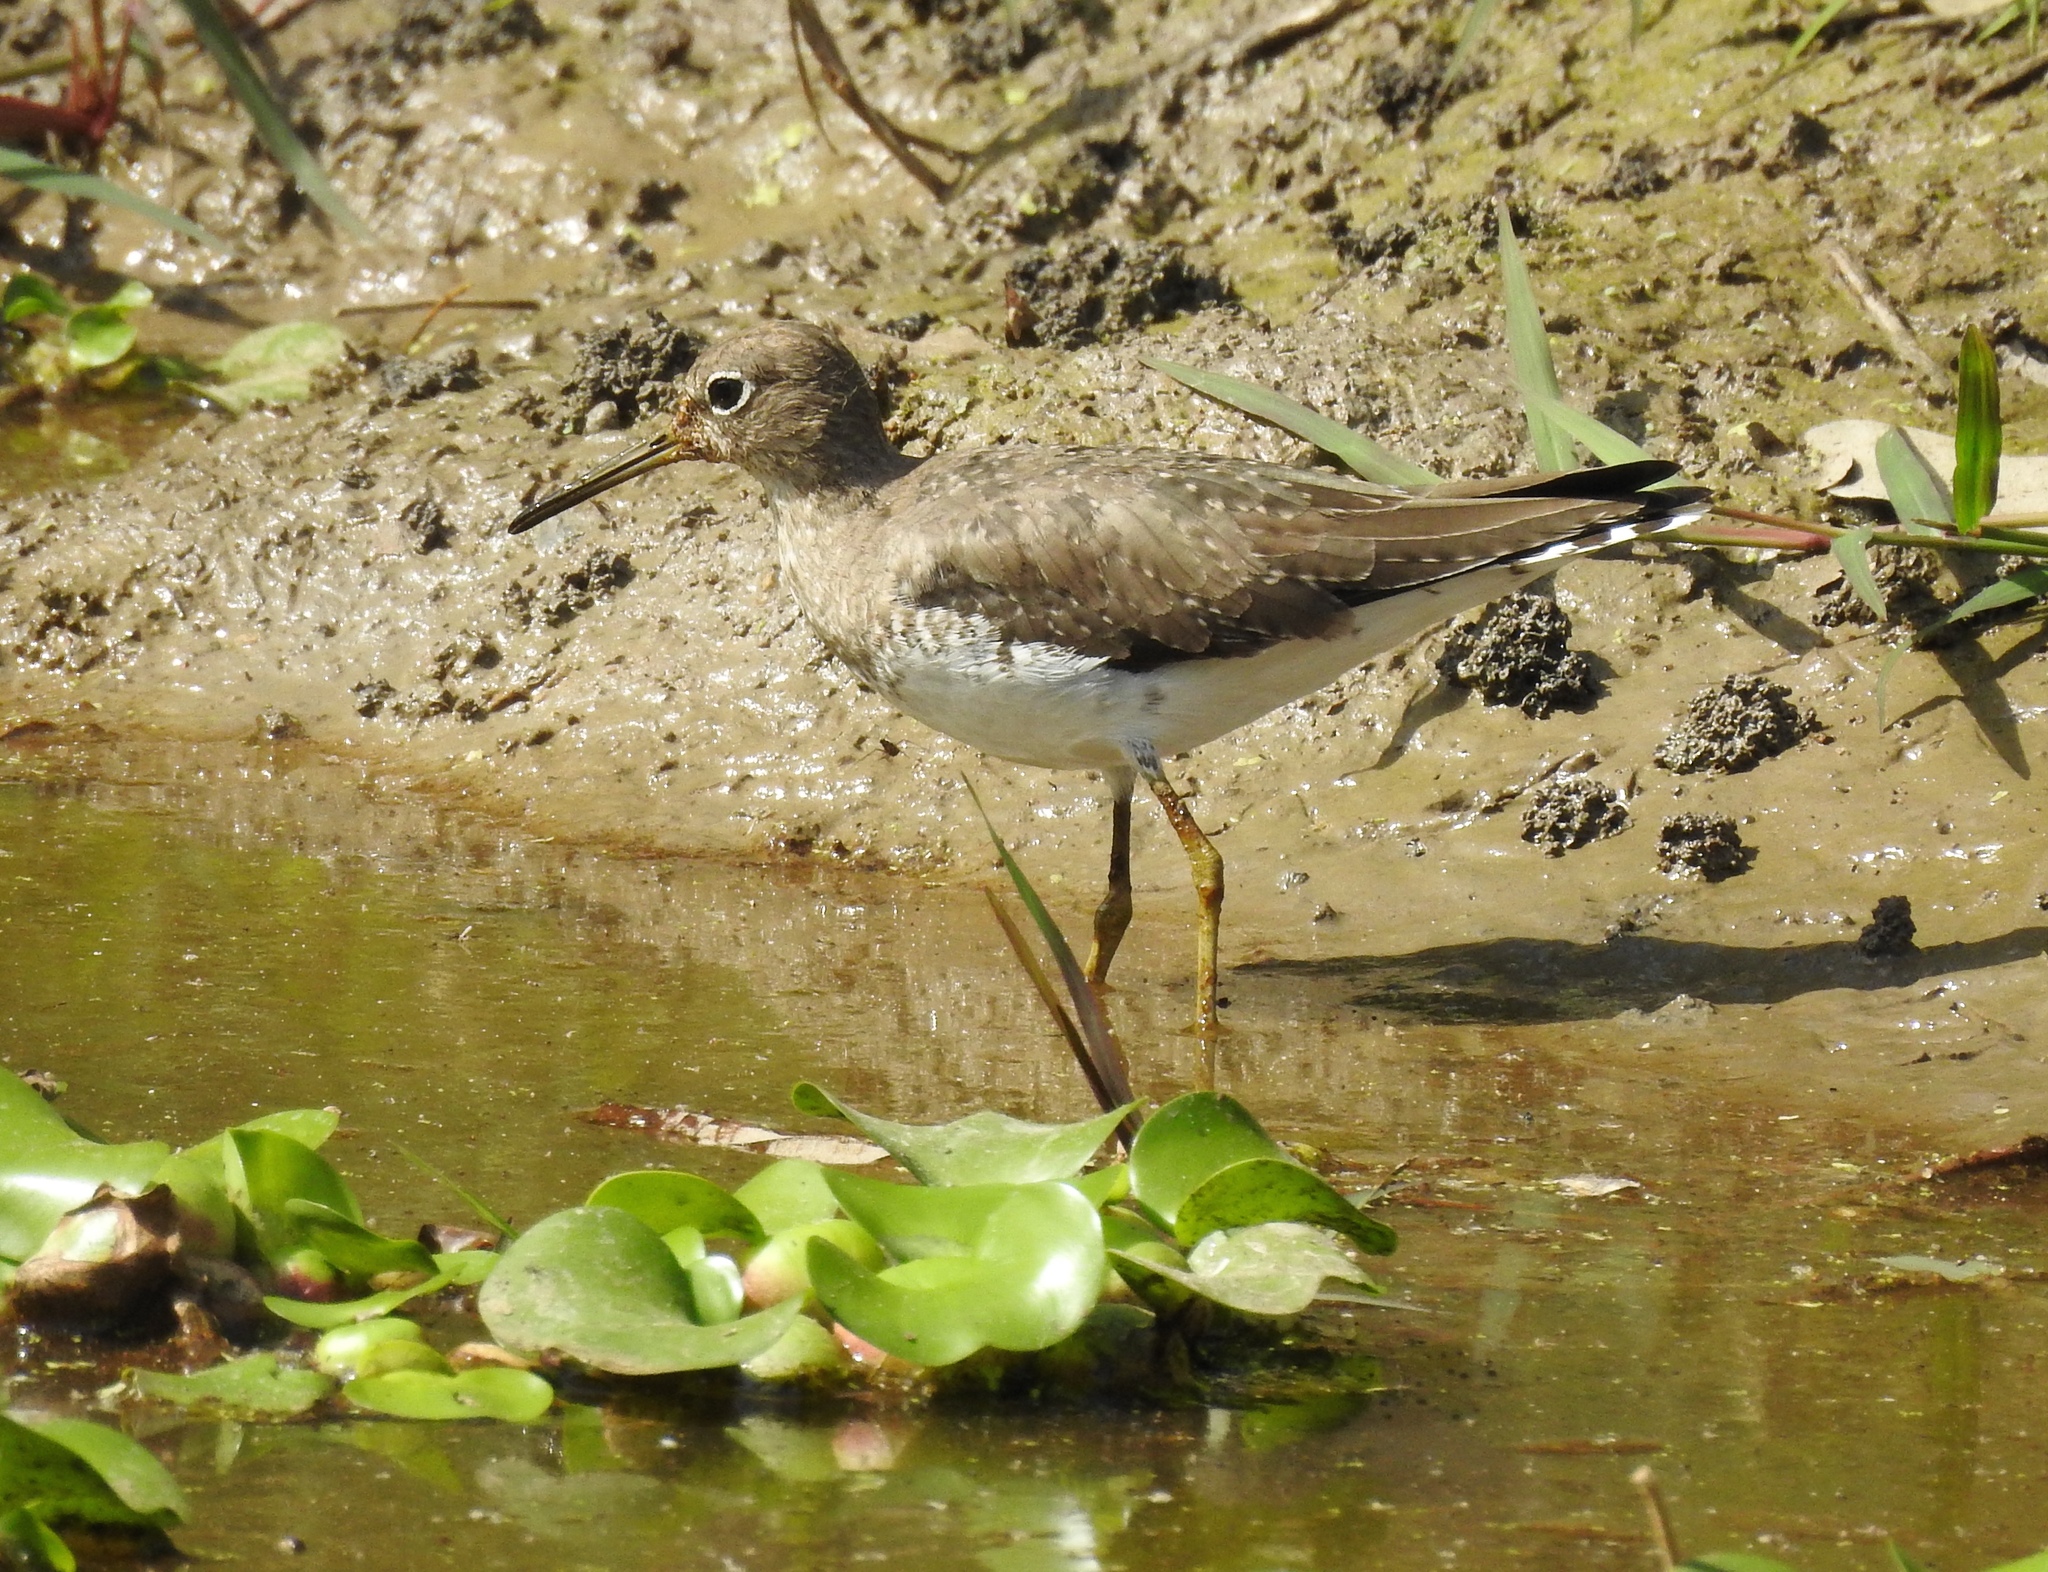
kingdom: Animalia
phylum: Chordata
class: Aves
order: Charadriiformes
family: Scolopacidae
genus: Tringa
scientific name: Tringa solitaria
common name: Solitary sandpiper
